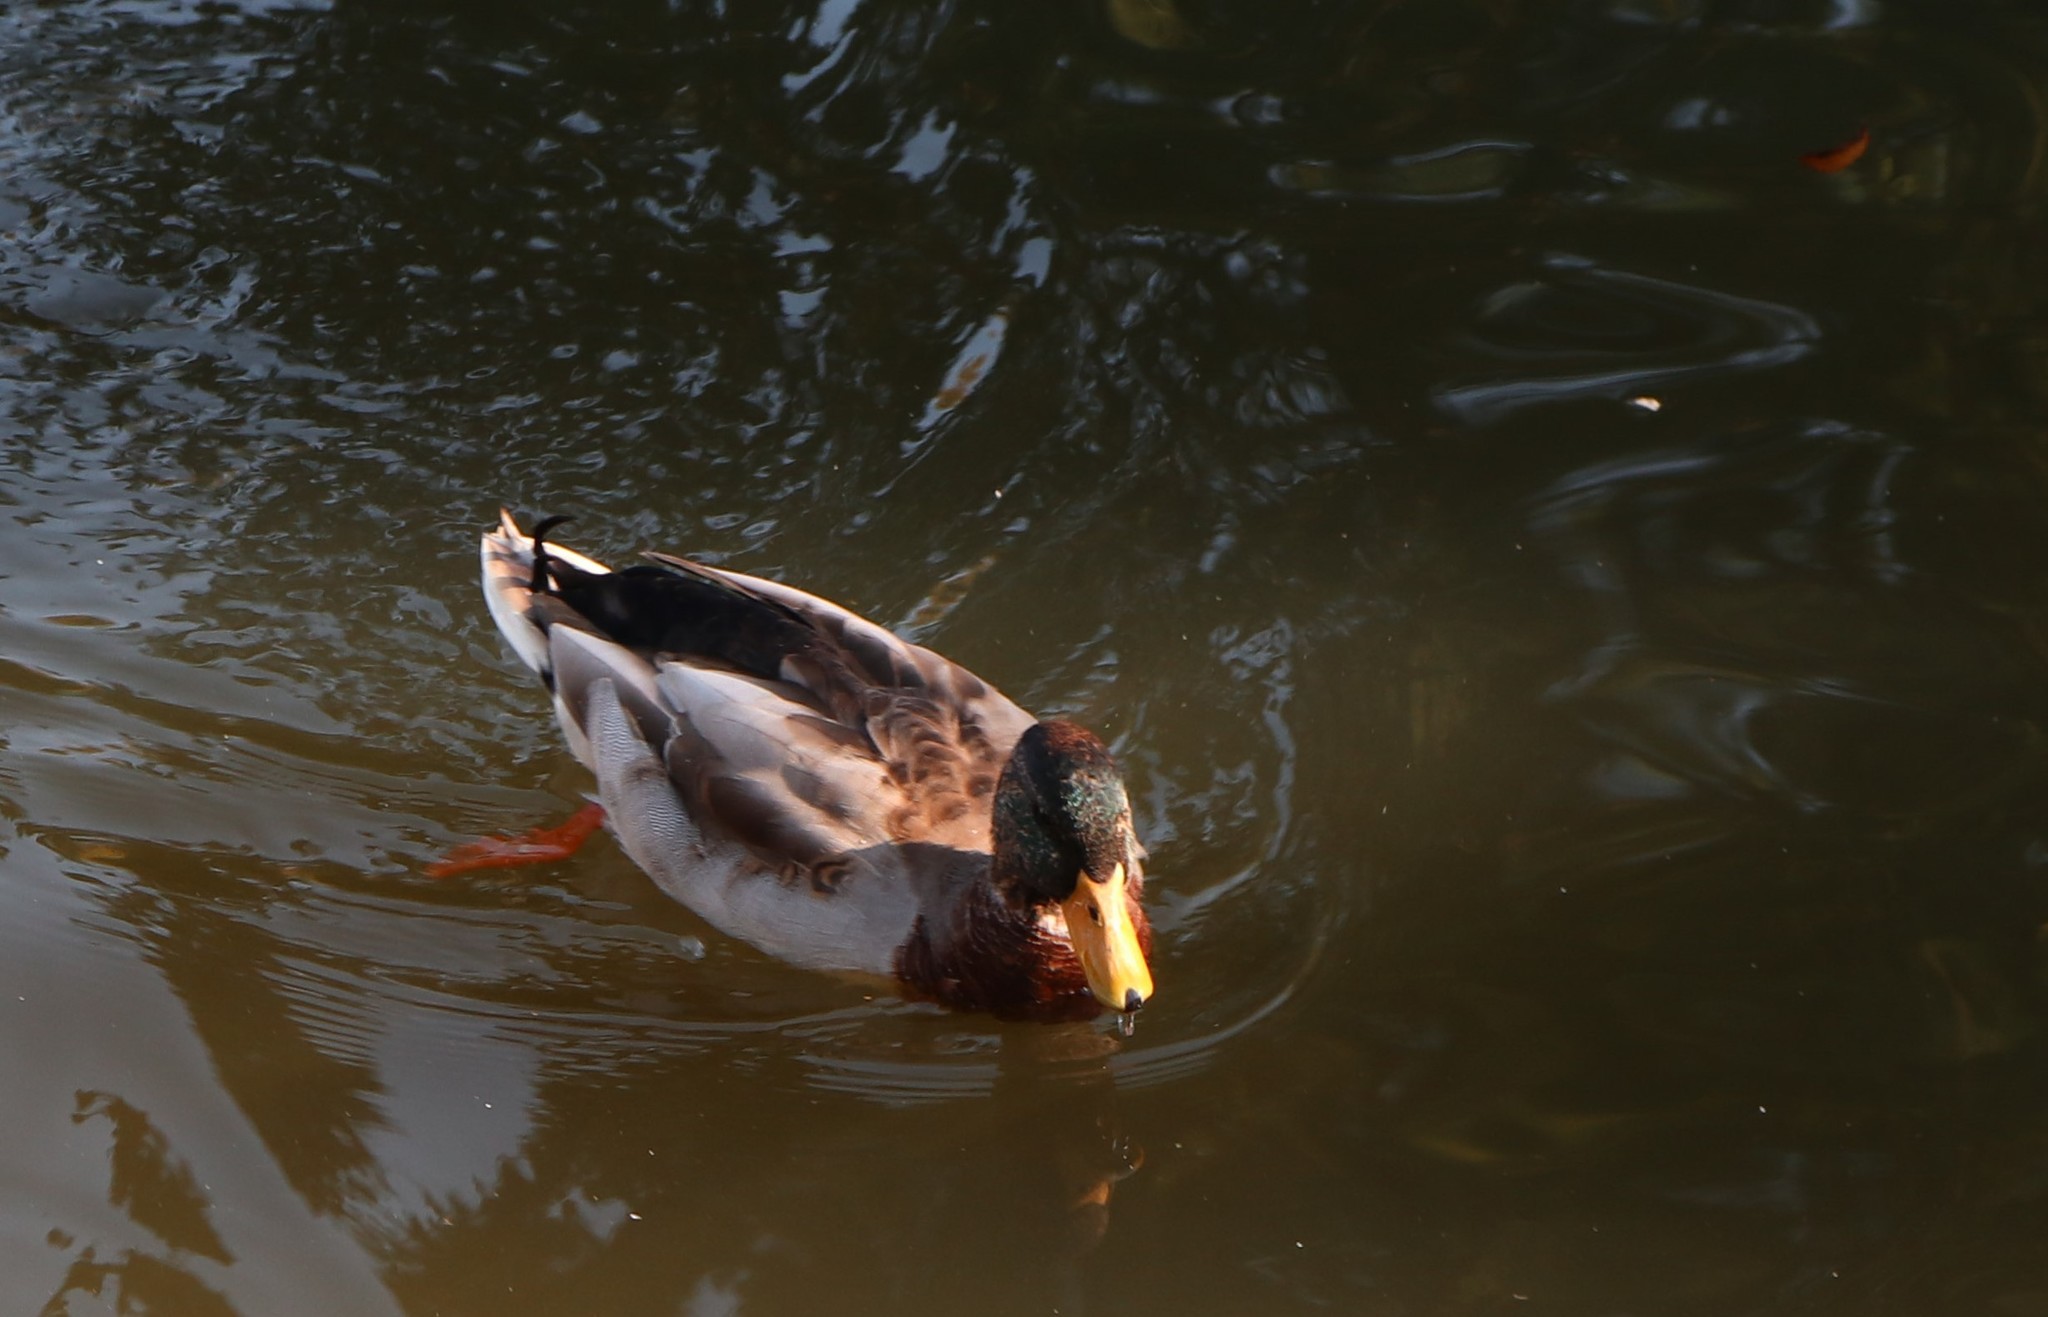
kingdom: Animalia
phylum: Chordata
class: Aves
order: Anseriformes
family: Anatidae
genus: Anas
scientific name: Anas platyrhynchos
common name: Mallard
